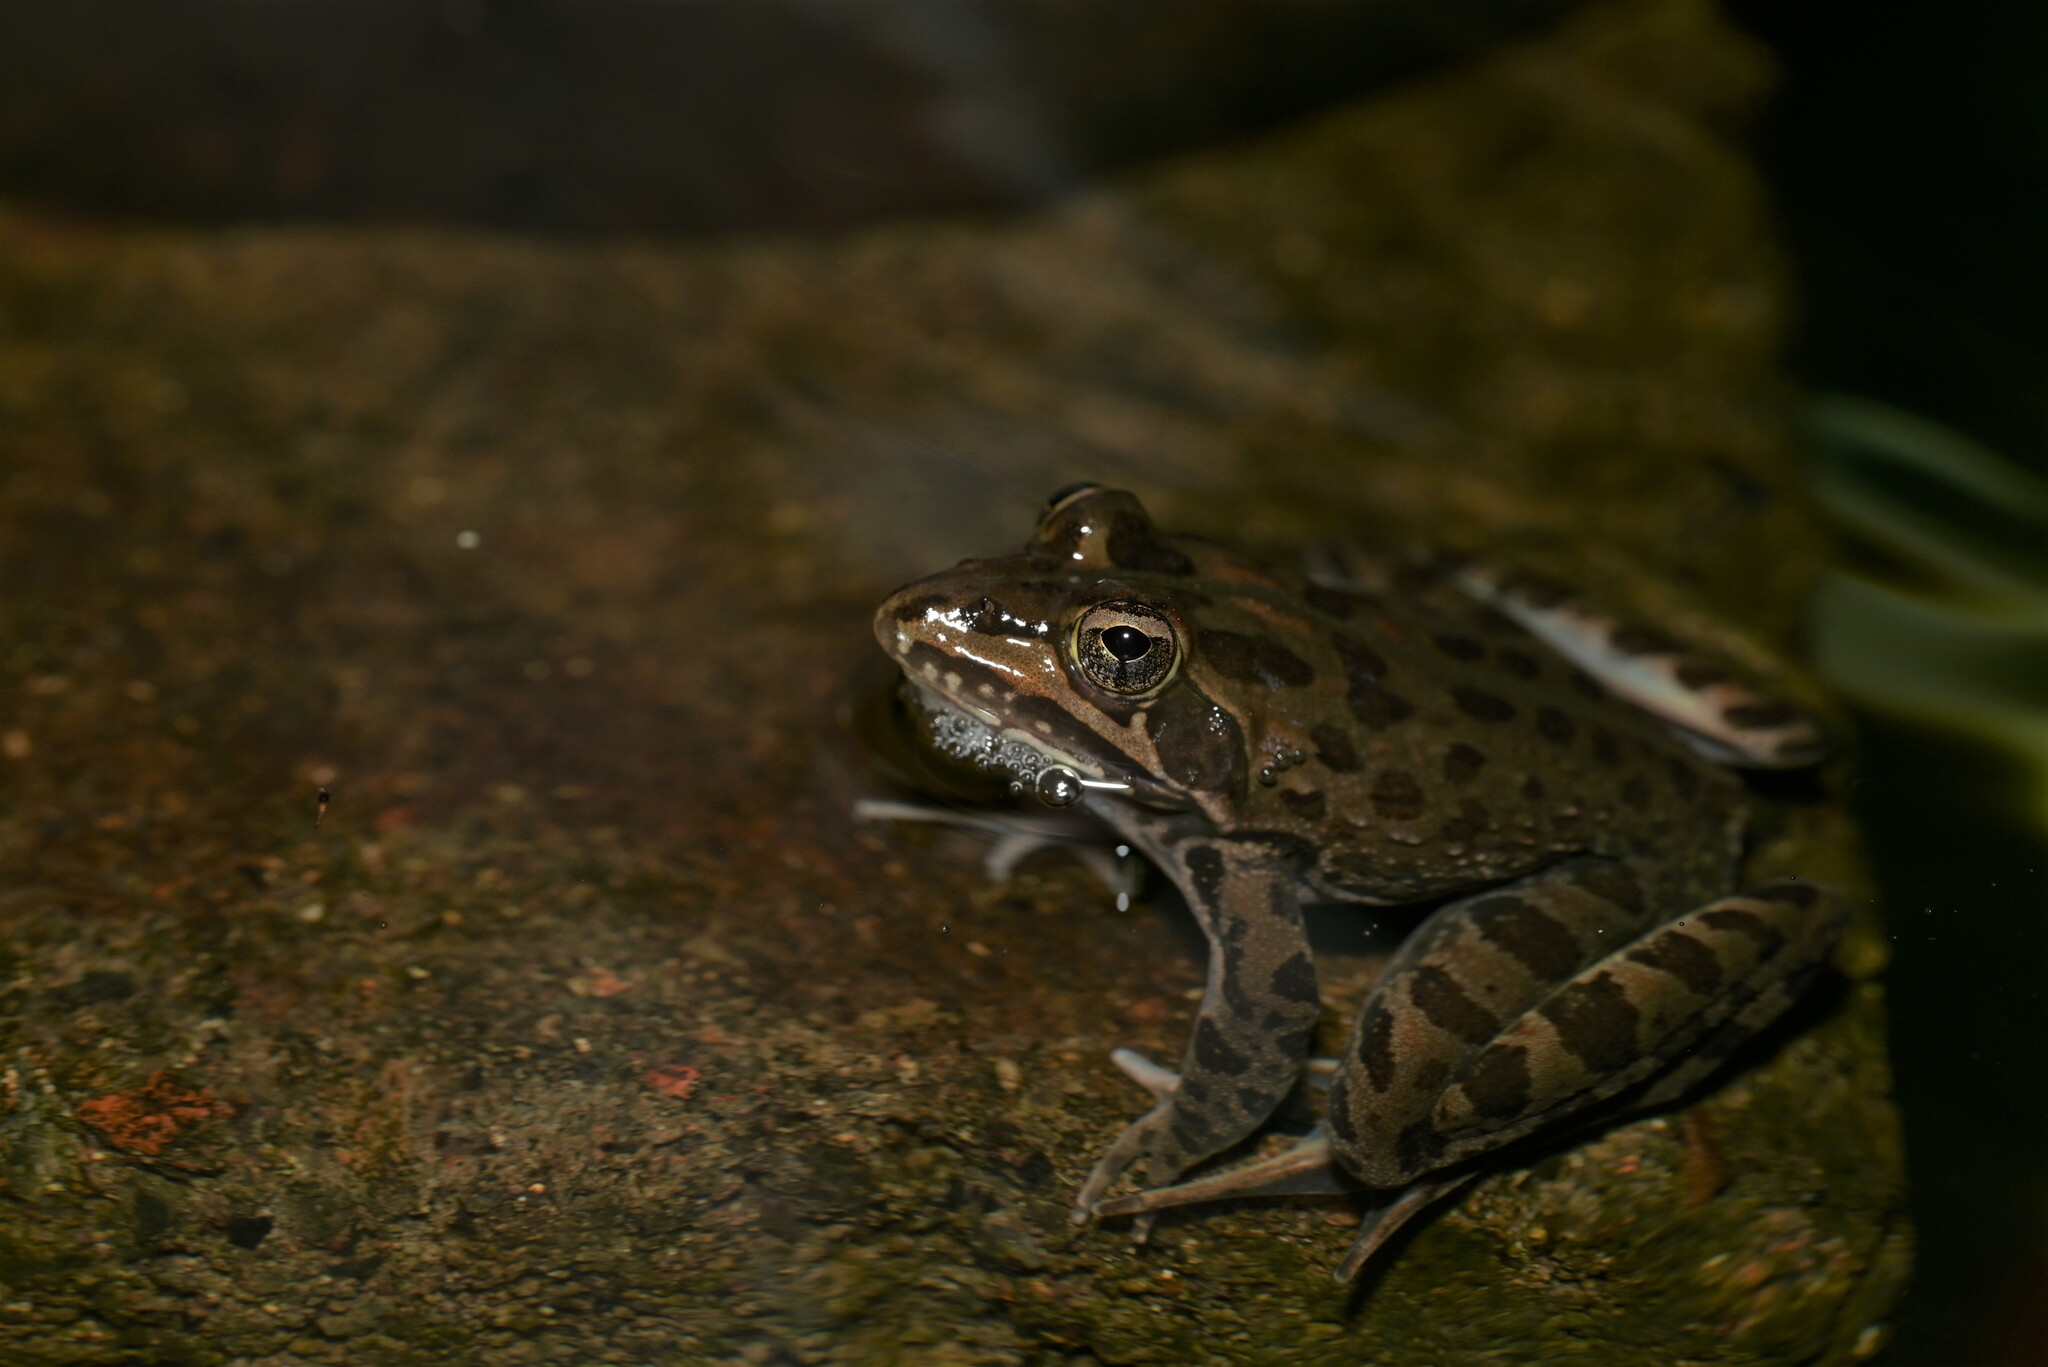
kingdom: Animalia
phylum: Chordata
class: Amphibia
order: Anura
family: Pyxicephalidae
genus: Amietia
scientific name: Amietia delalandii
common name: Delalande's river frog
